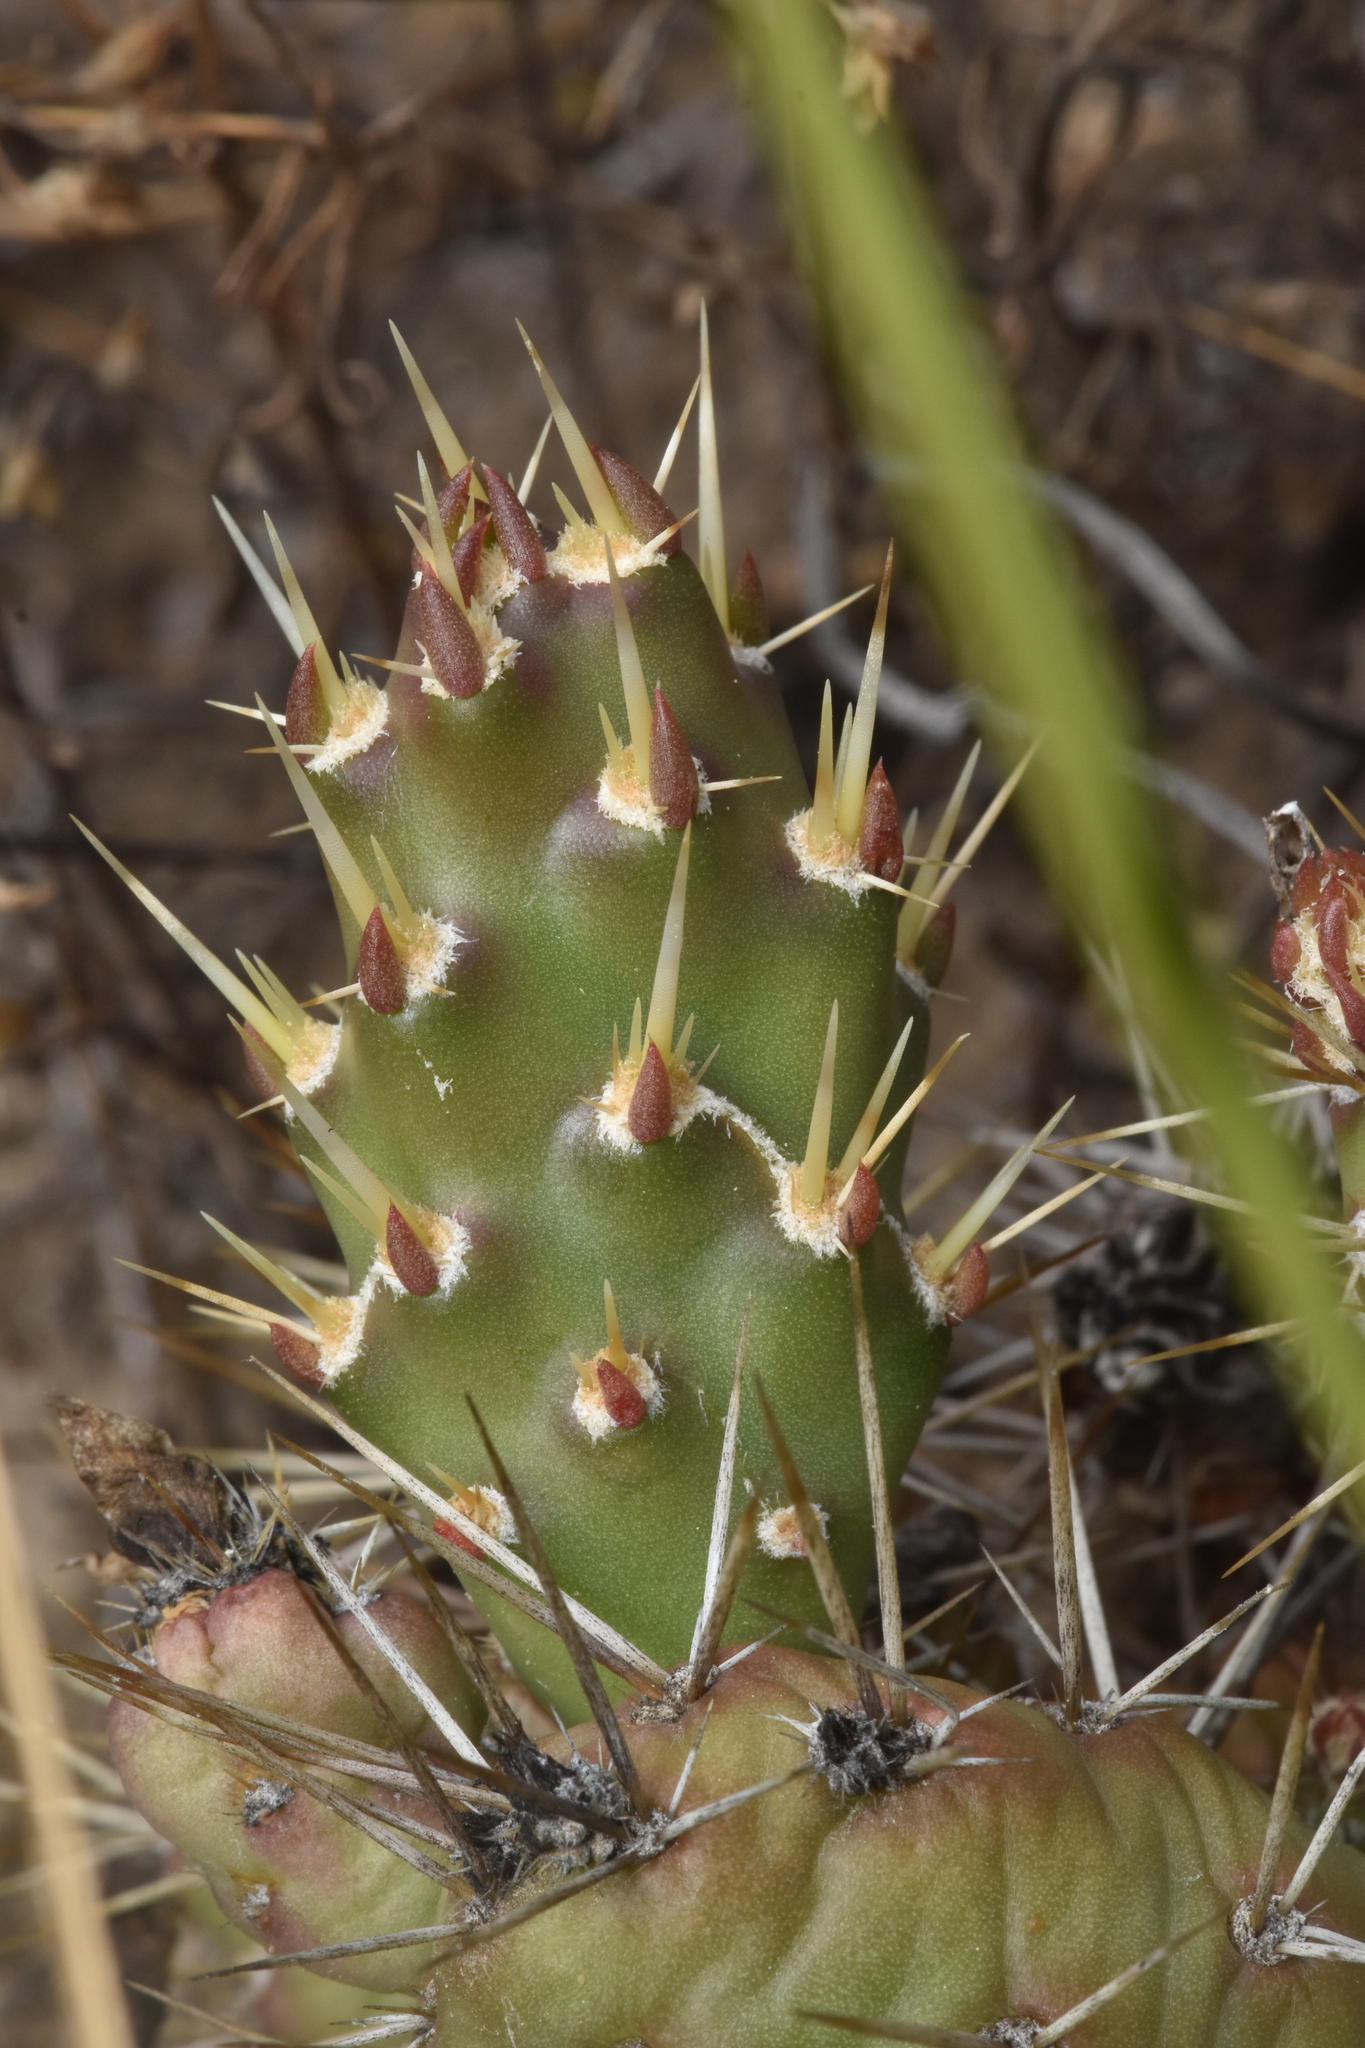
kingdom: Plantae
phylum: Tracheophyta
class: Magnoliopsida
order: Caryophyllales
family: Cactaceae
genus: Opuntia
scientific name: Opuntia fragilis
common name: Brittle cactus
